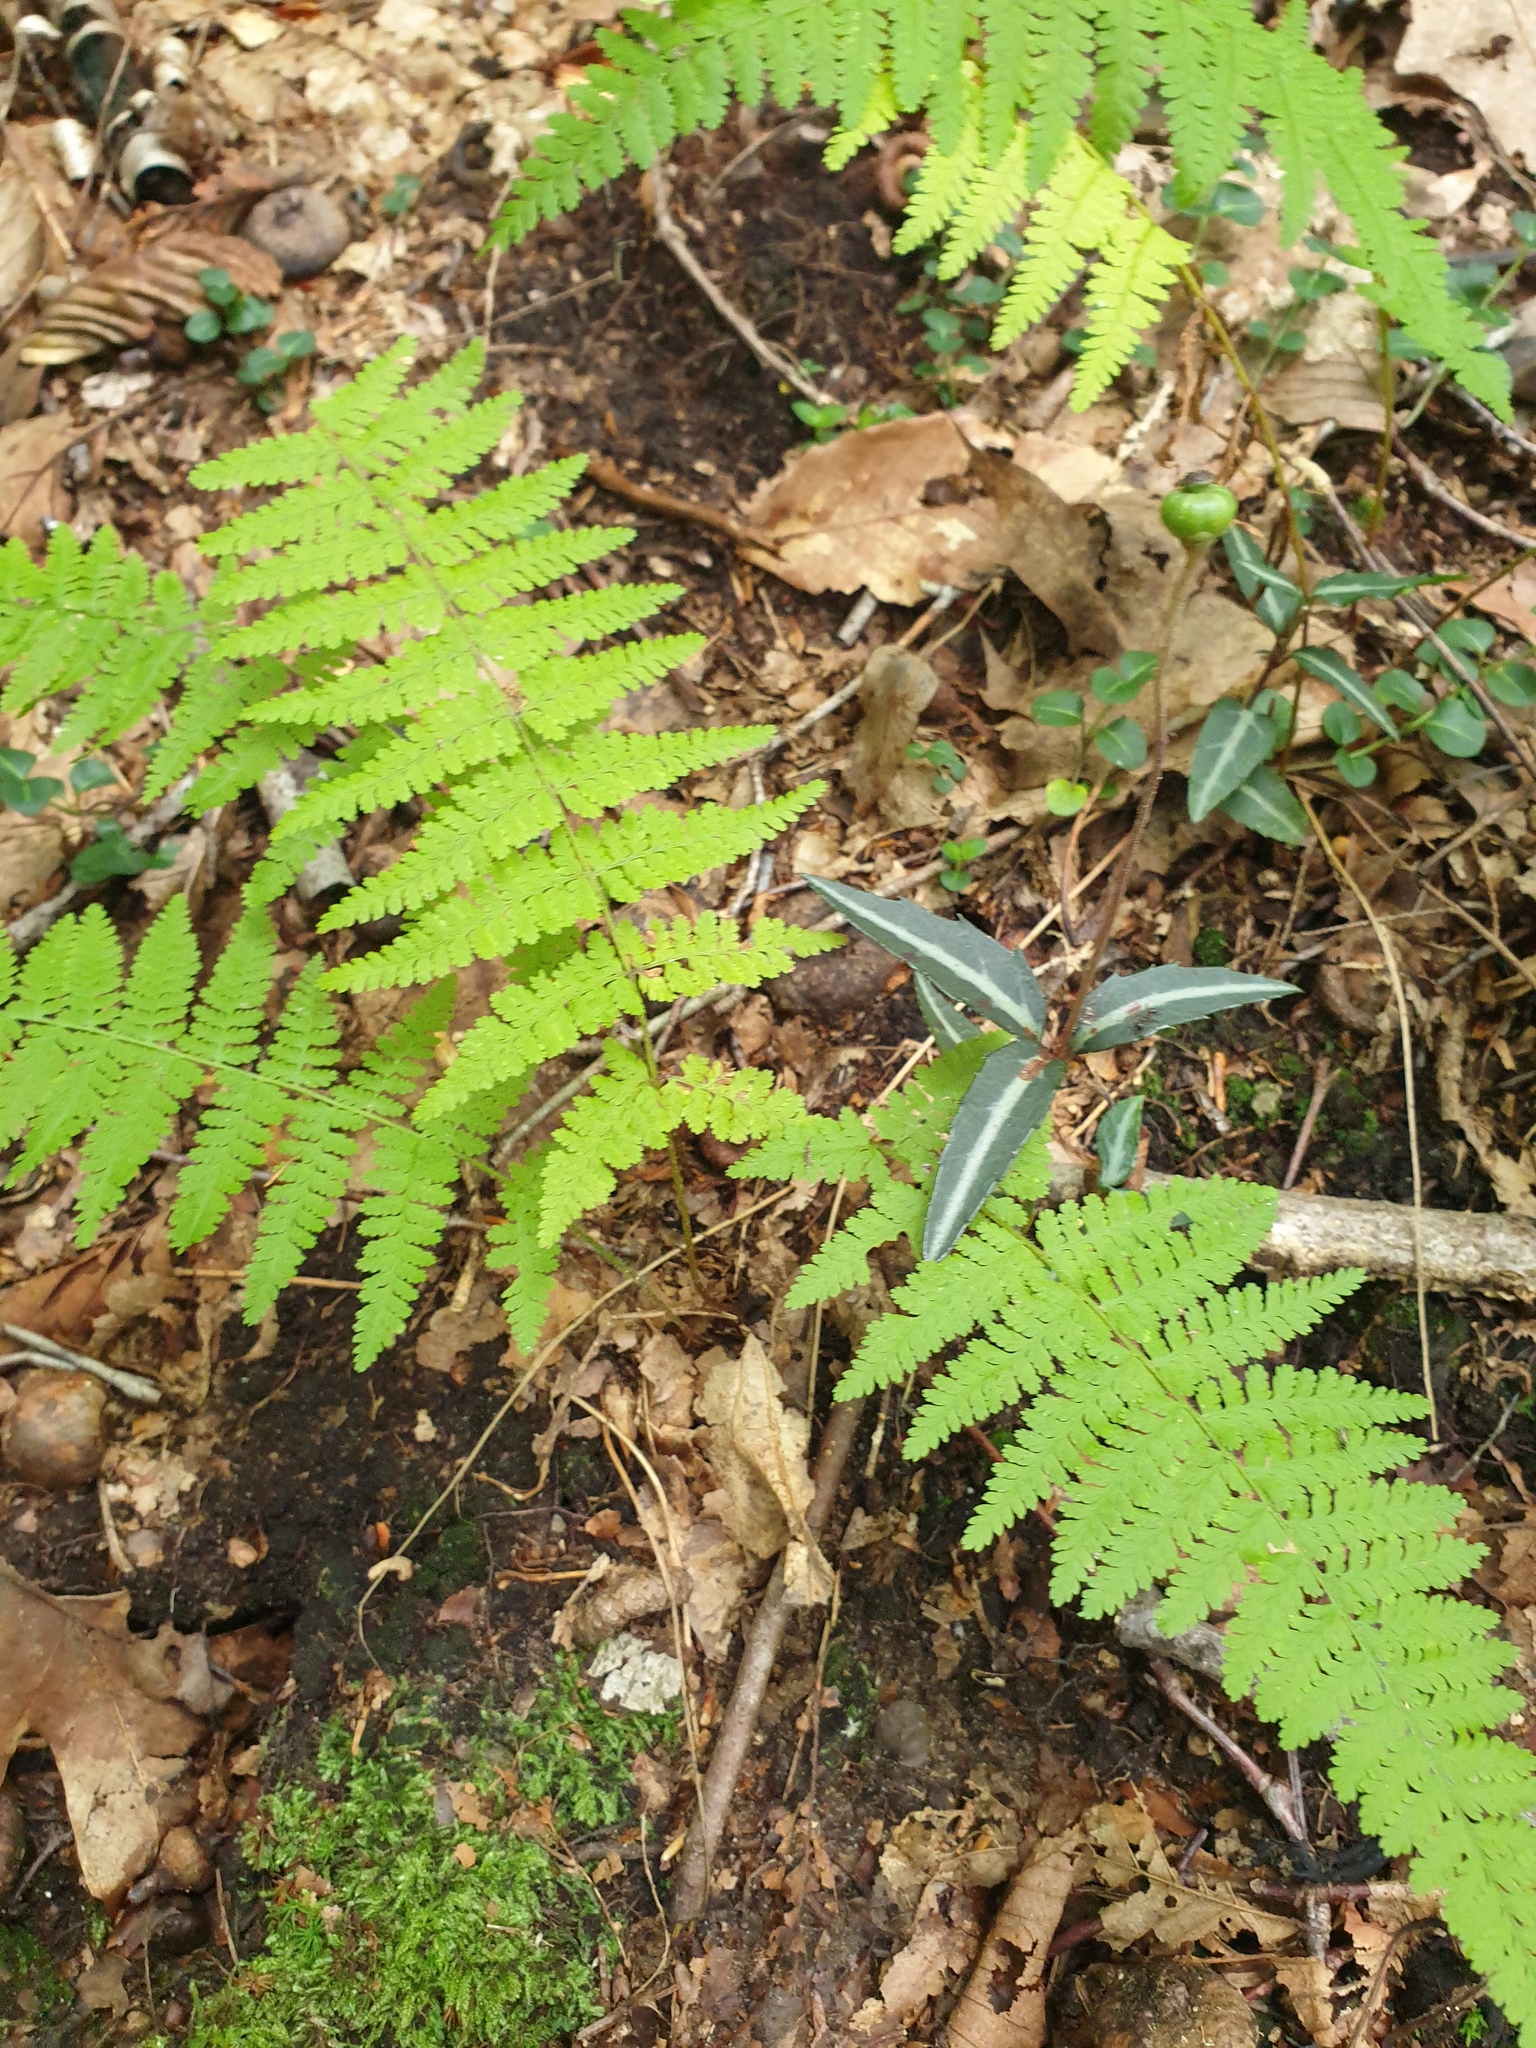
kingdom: Plantae
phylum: Tracheophyta
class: Magnoliopsida
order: Ericales
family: Ericaceae
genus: Chimaphila
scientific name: Chimaphila maculata
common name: Spotted pipsissewa
